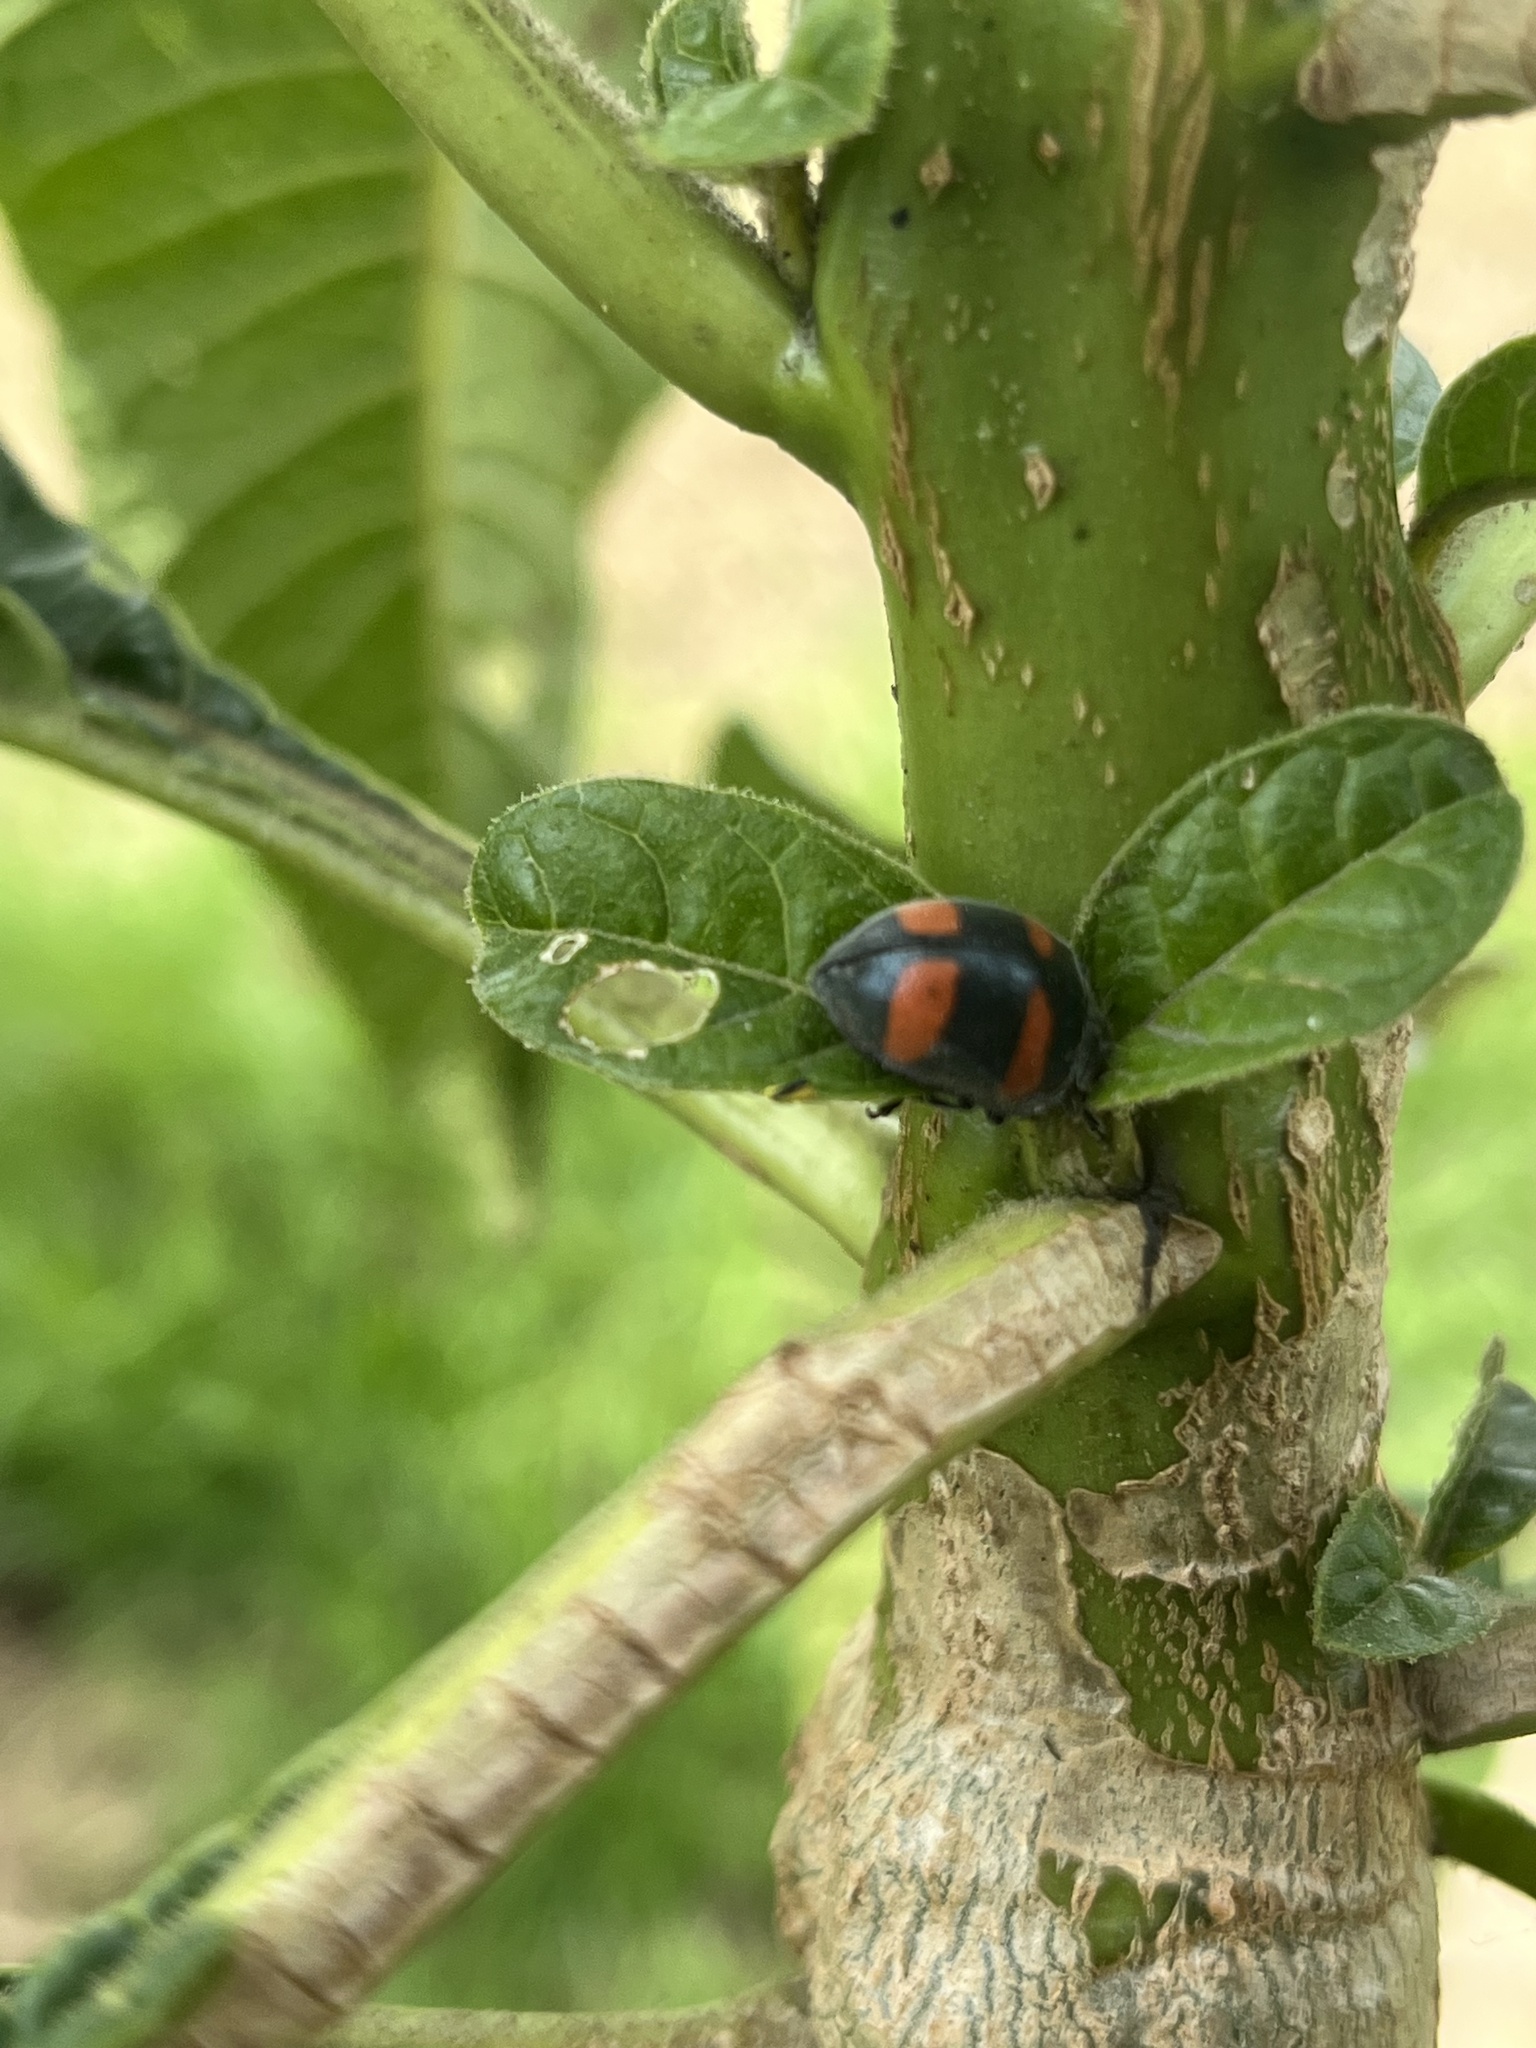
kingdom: Animalia
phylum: Arthropoda
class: Insecta
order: Coleoptera
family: Coccinellidae
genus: Toxotoma
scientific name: Toxotoma flavofasciata
